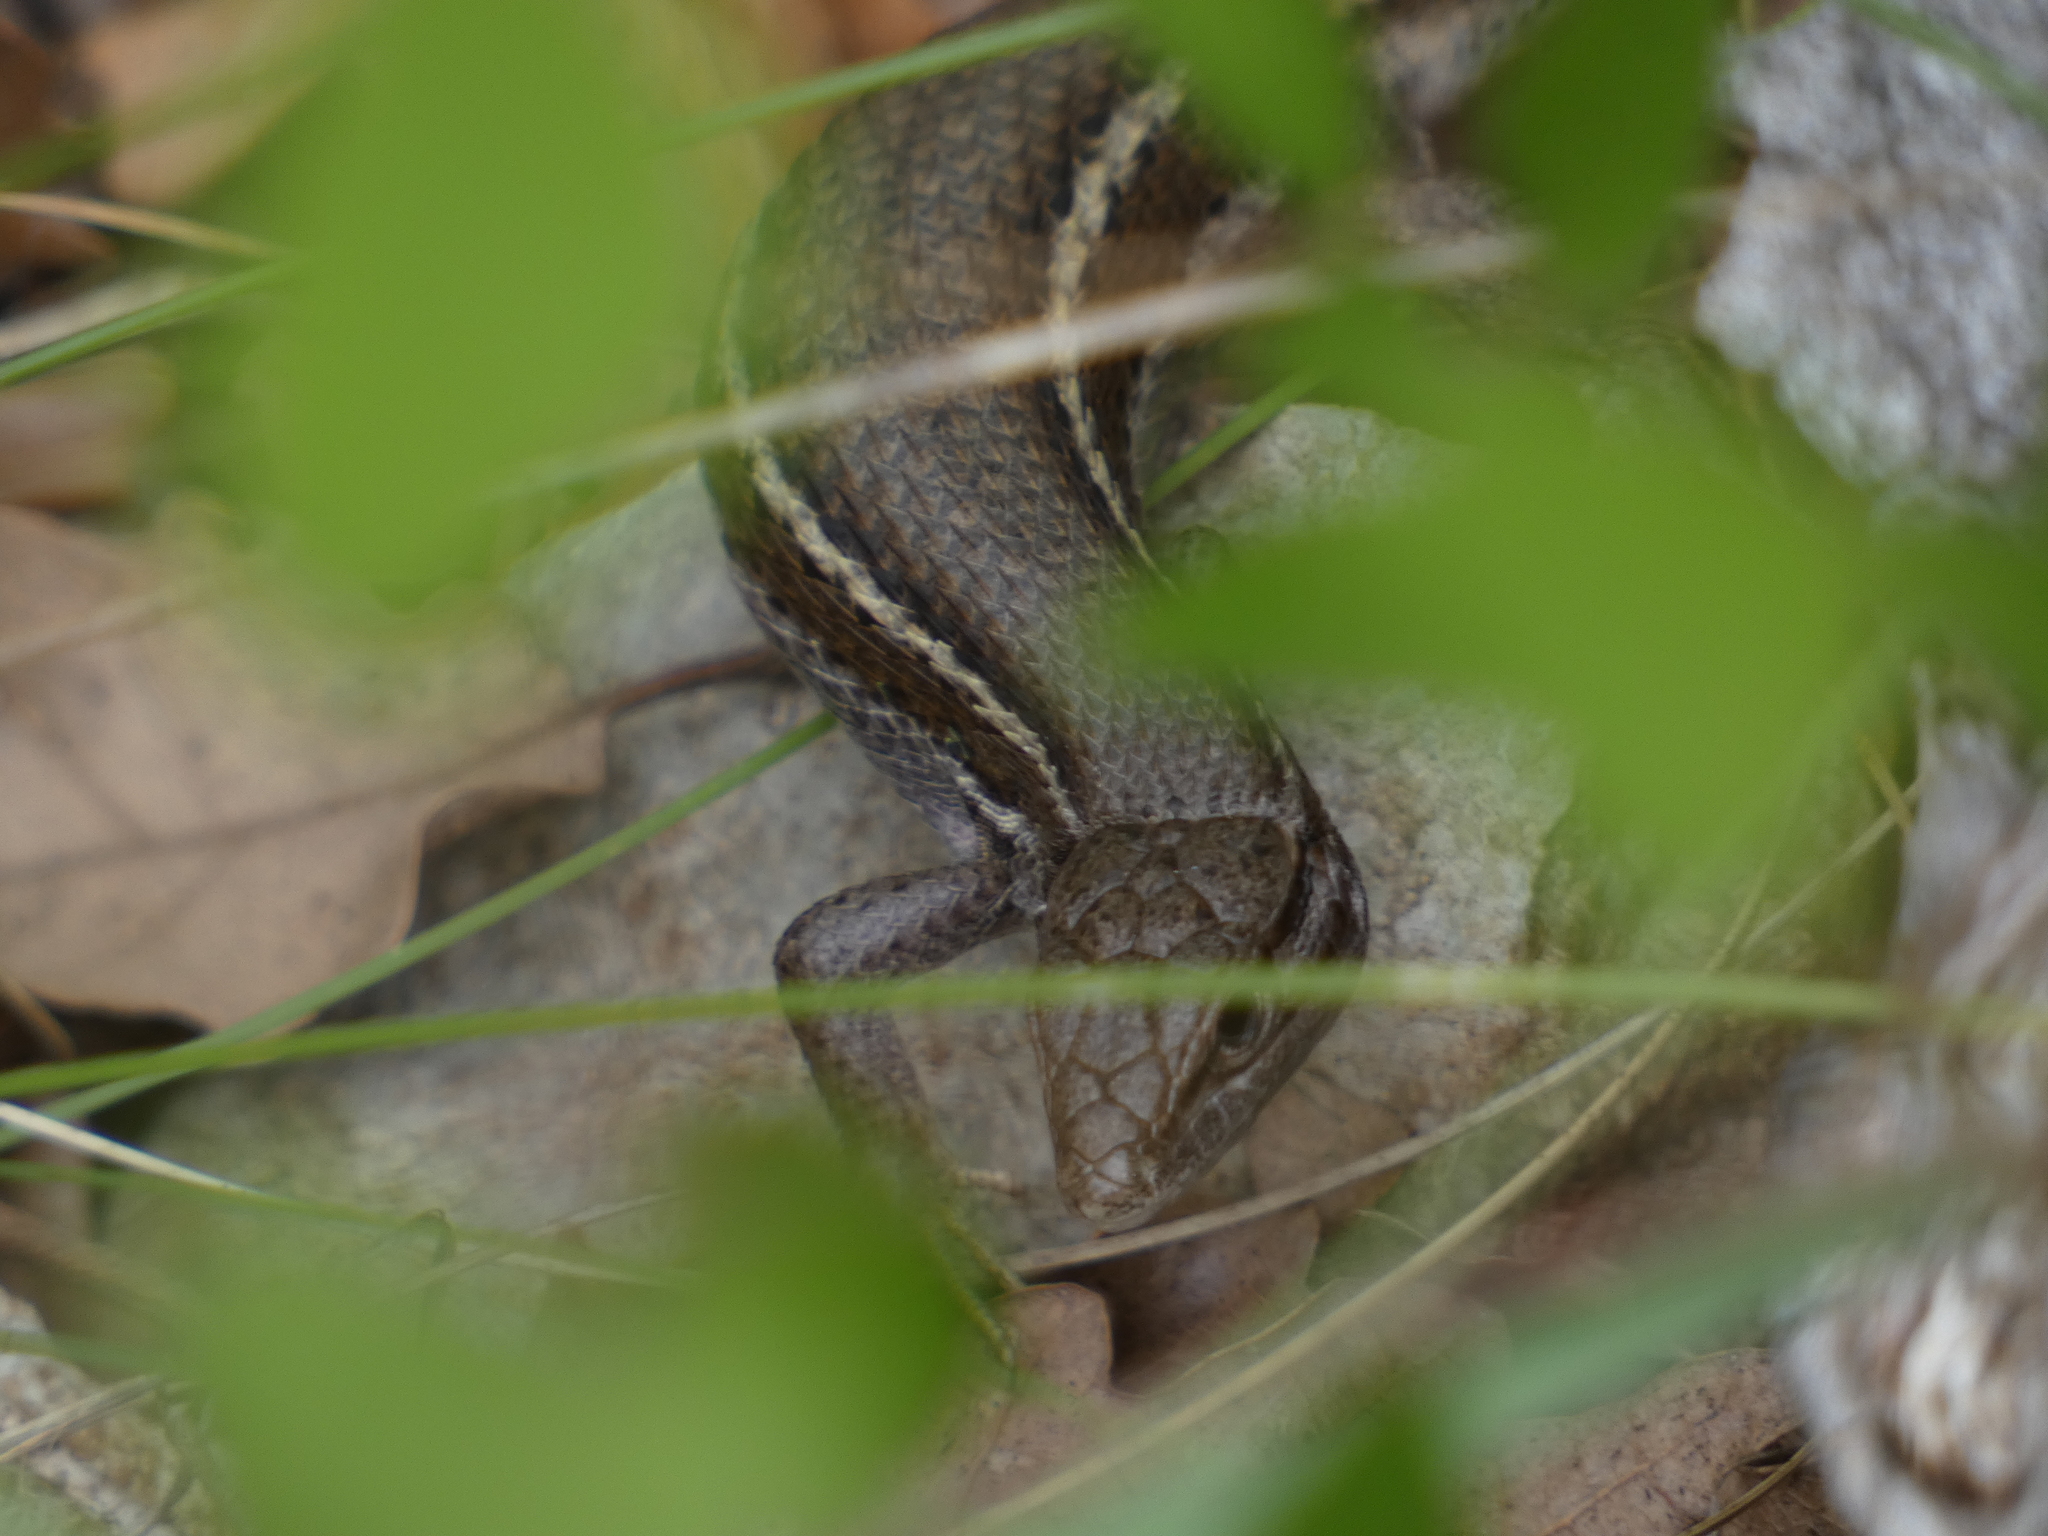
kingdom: Animalia
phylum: Chordata
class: Squamata
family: Lacertidae
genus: Psammodromus
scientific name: Psammodromus algirus
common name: Algerian psammodromus
